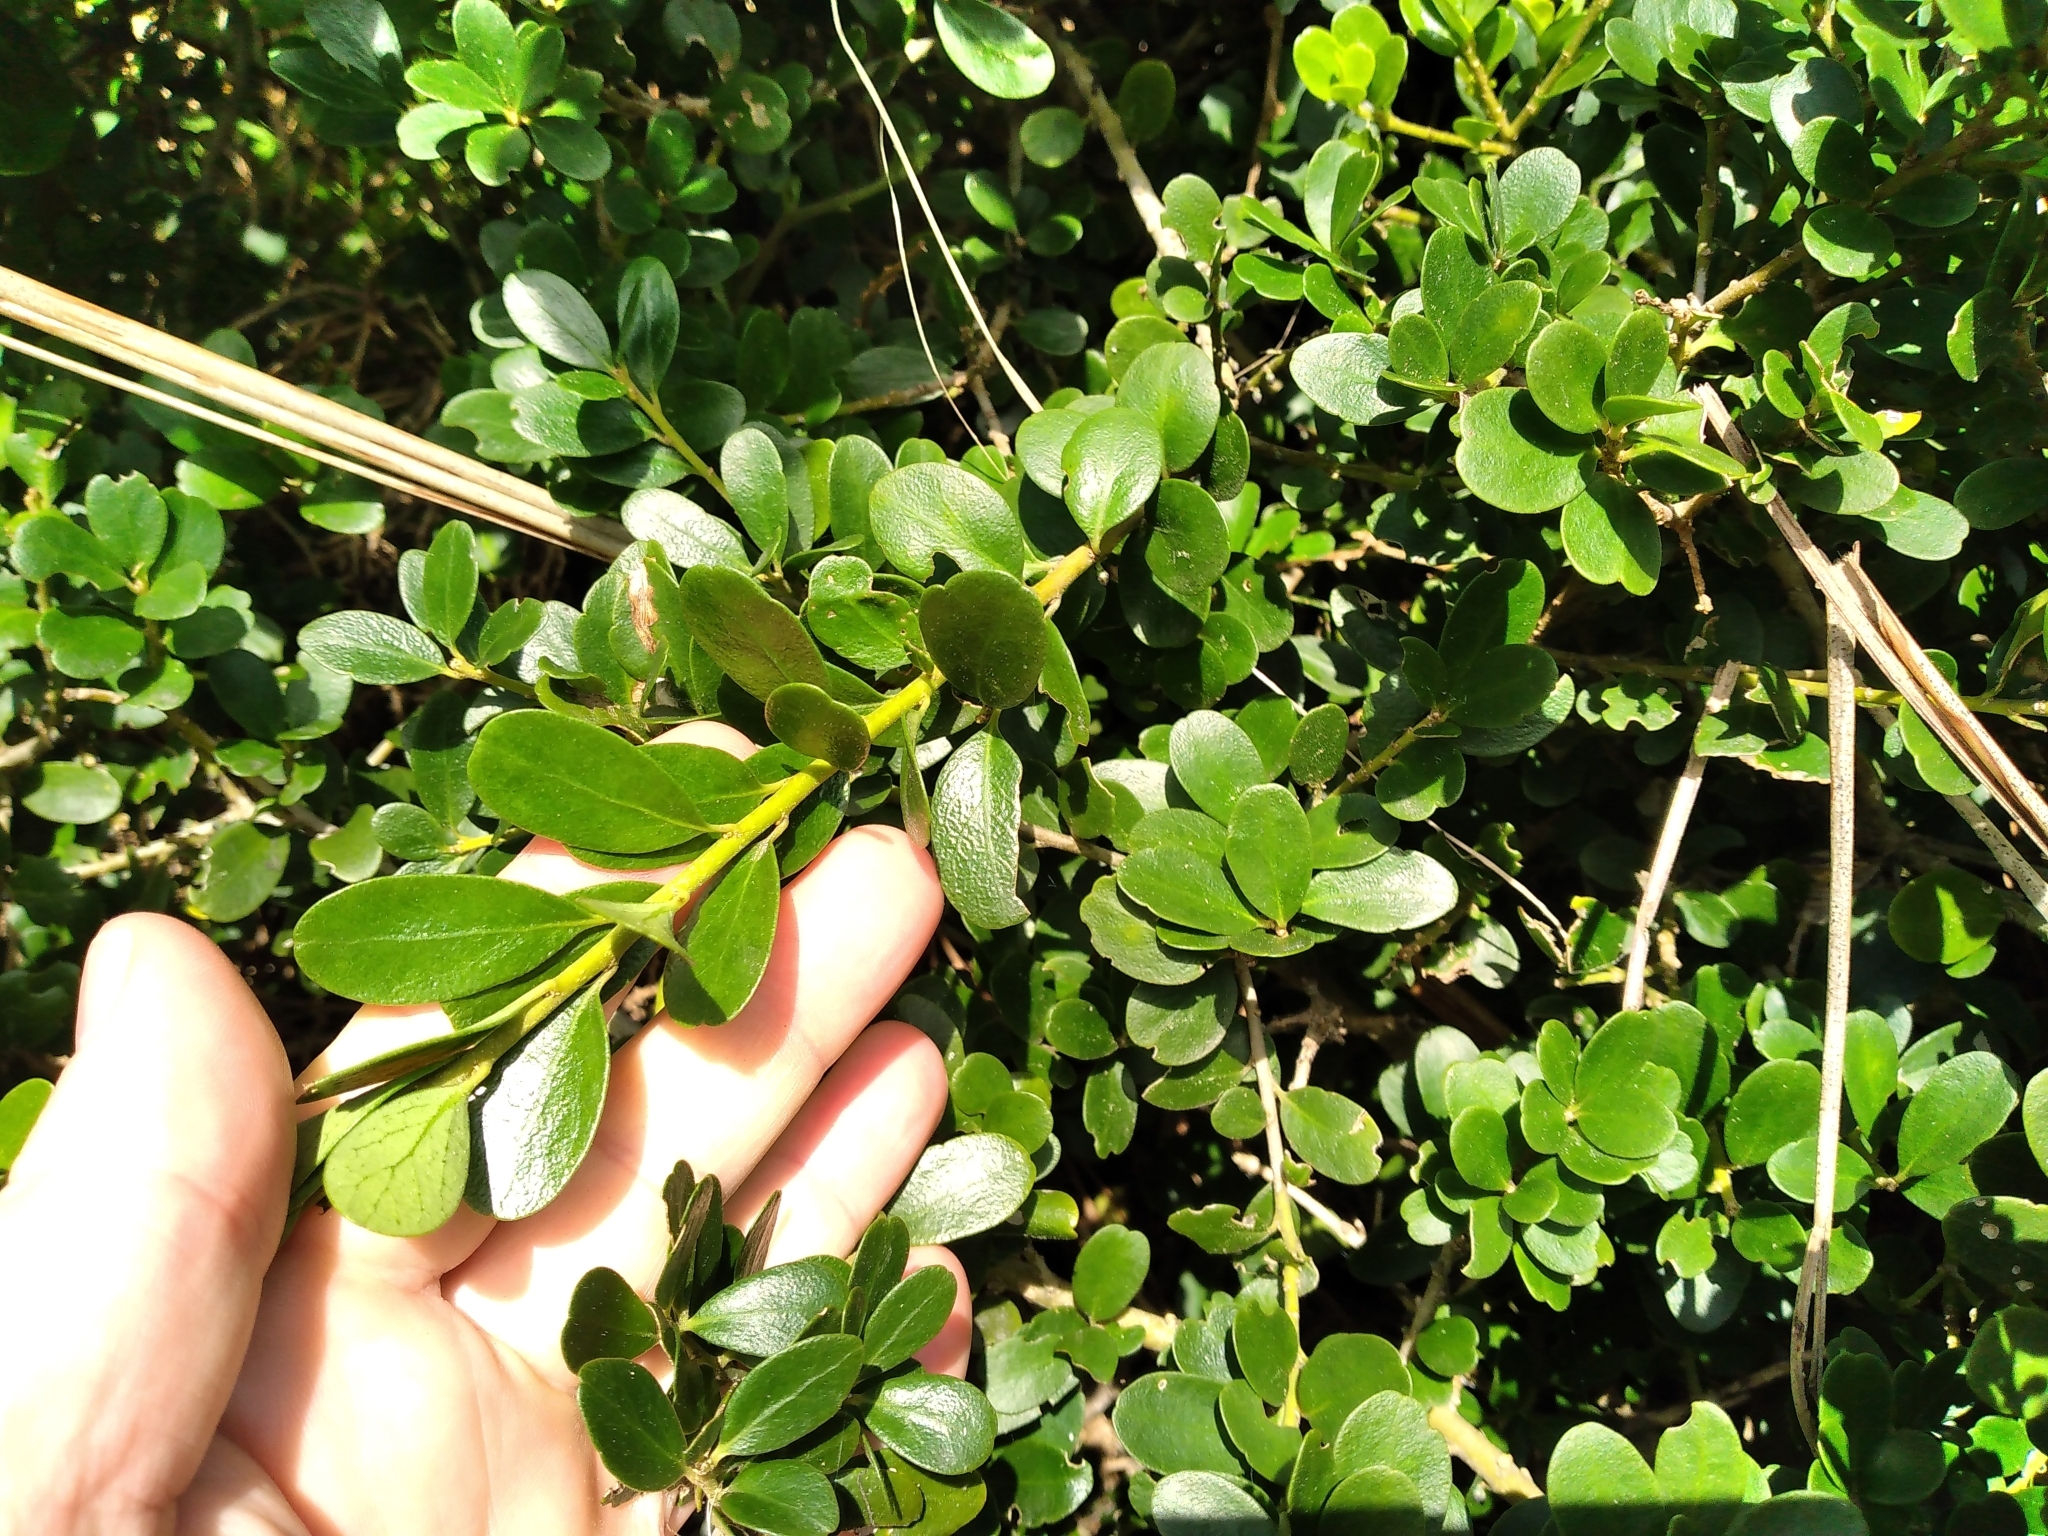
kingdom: Plantae
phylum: Tracheophyta
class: Magnoliopsida
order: Malpighiales
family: Violaceae
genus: Melicytus
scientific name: Melicytus orarius
